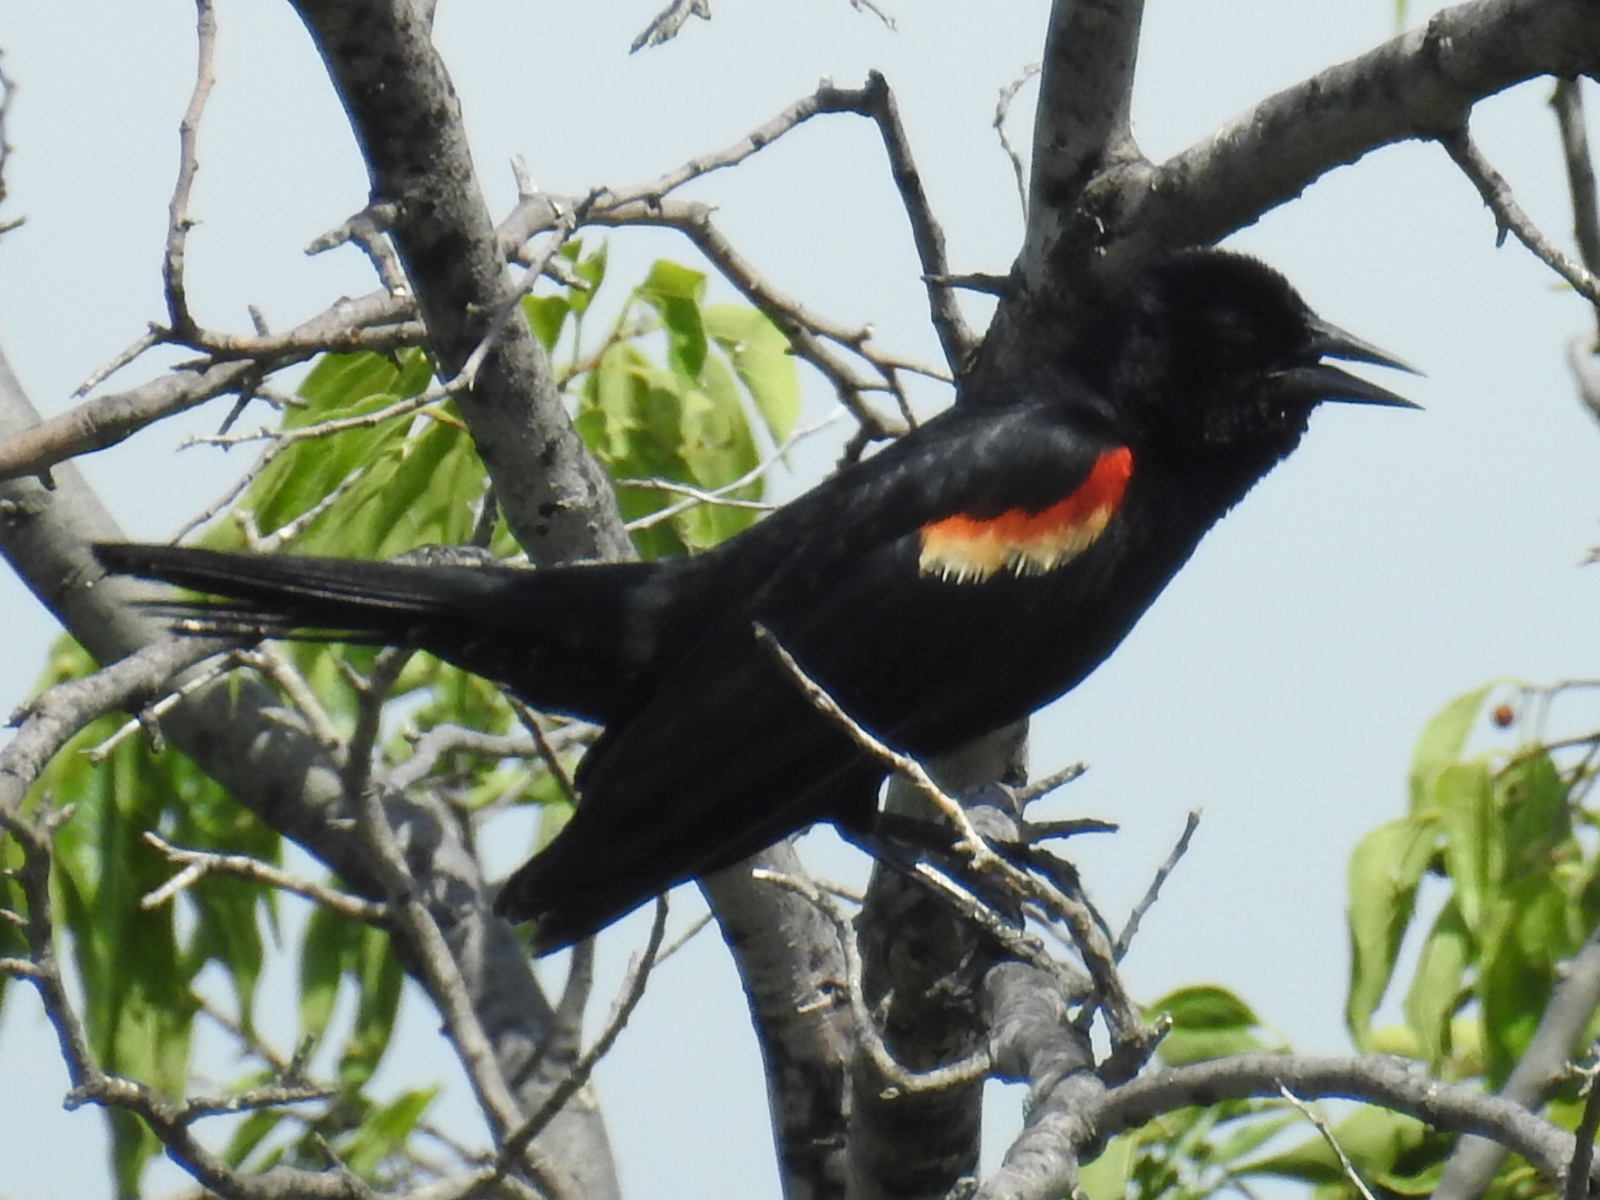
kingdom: Animalia
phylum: Chordata
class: Aves
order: Passeriformes
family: Icteridae
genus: Agelaius
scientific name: Agelaius phoeniceus
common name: Red-winged blackbird
